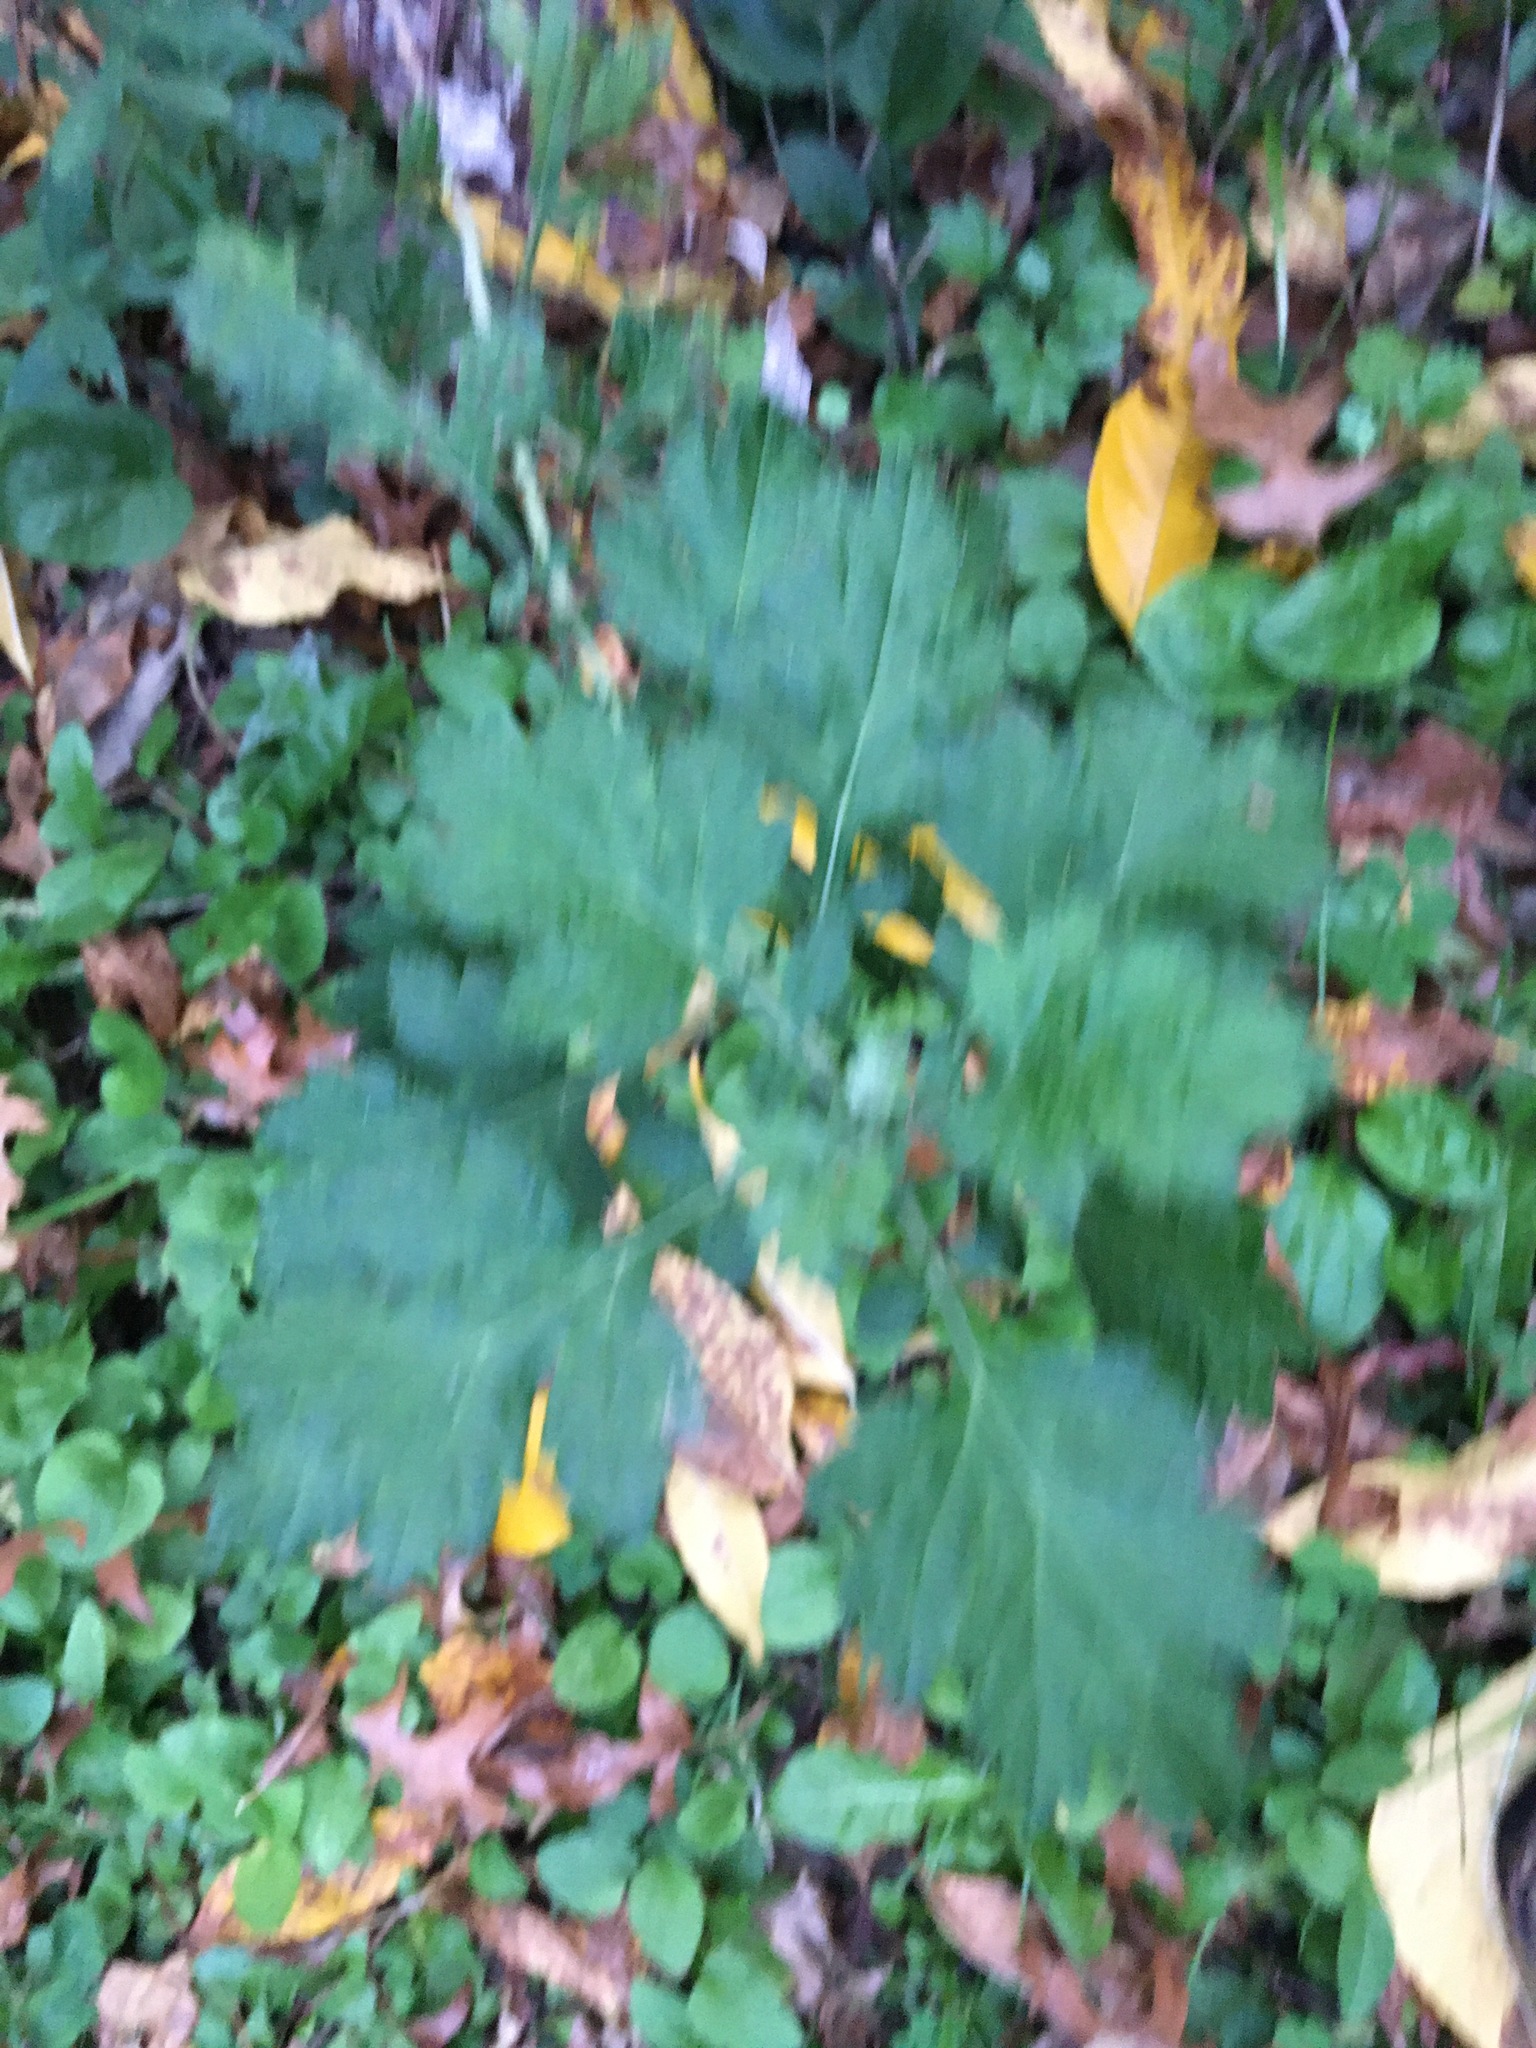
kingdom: Plantae
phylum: Tracheophyta
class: Magnoliopsida
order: Asterales
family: Asteraceae
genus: Artemisia
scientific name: Artemisia vulgaris
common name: Mugwort
